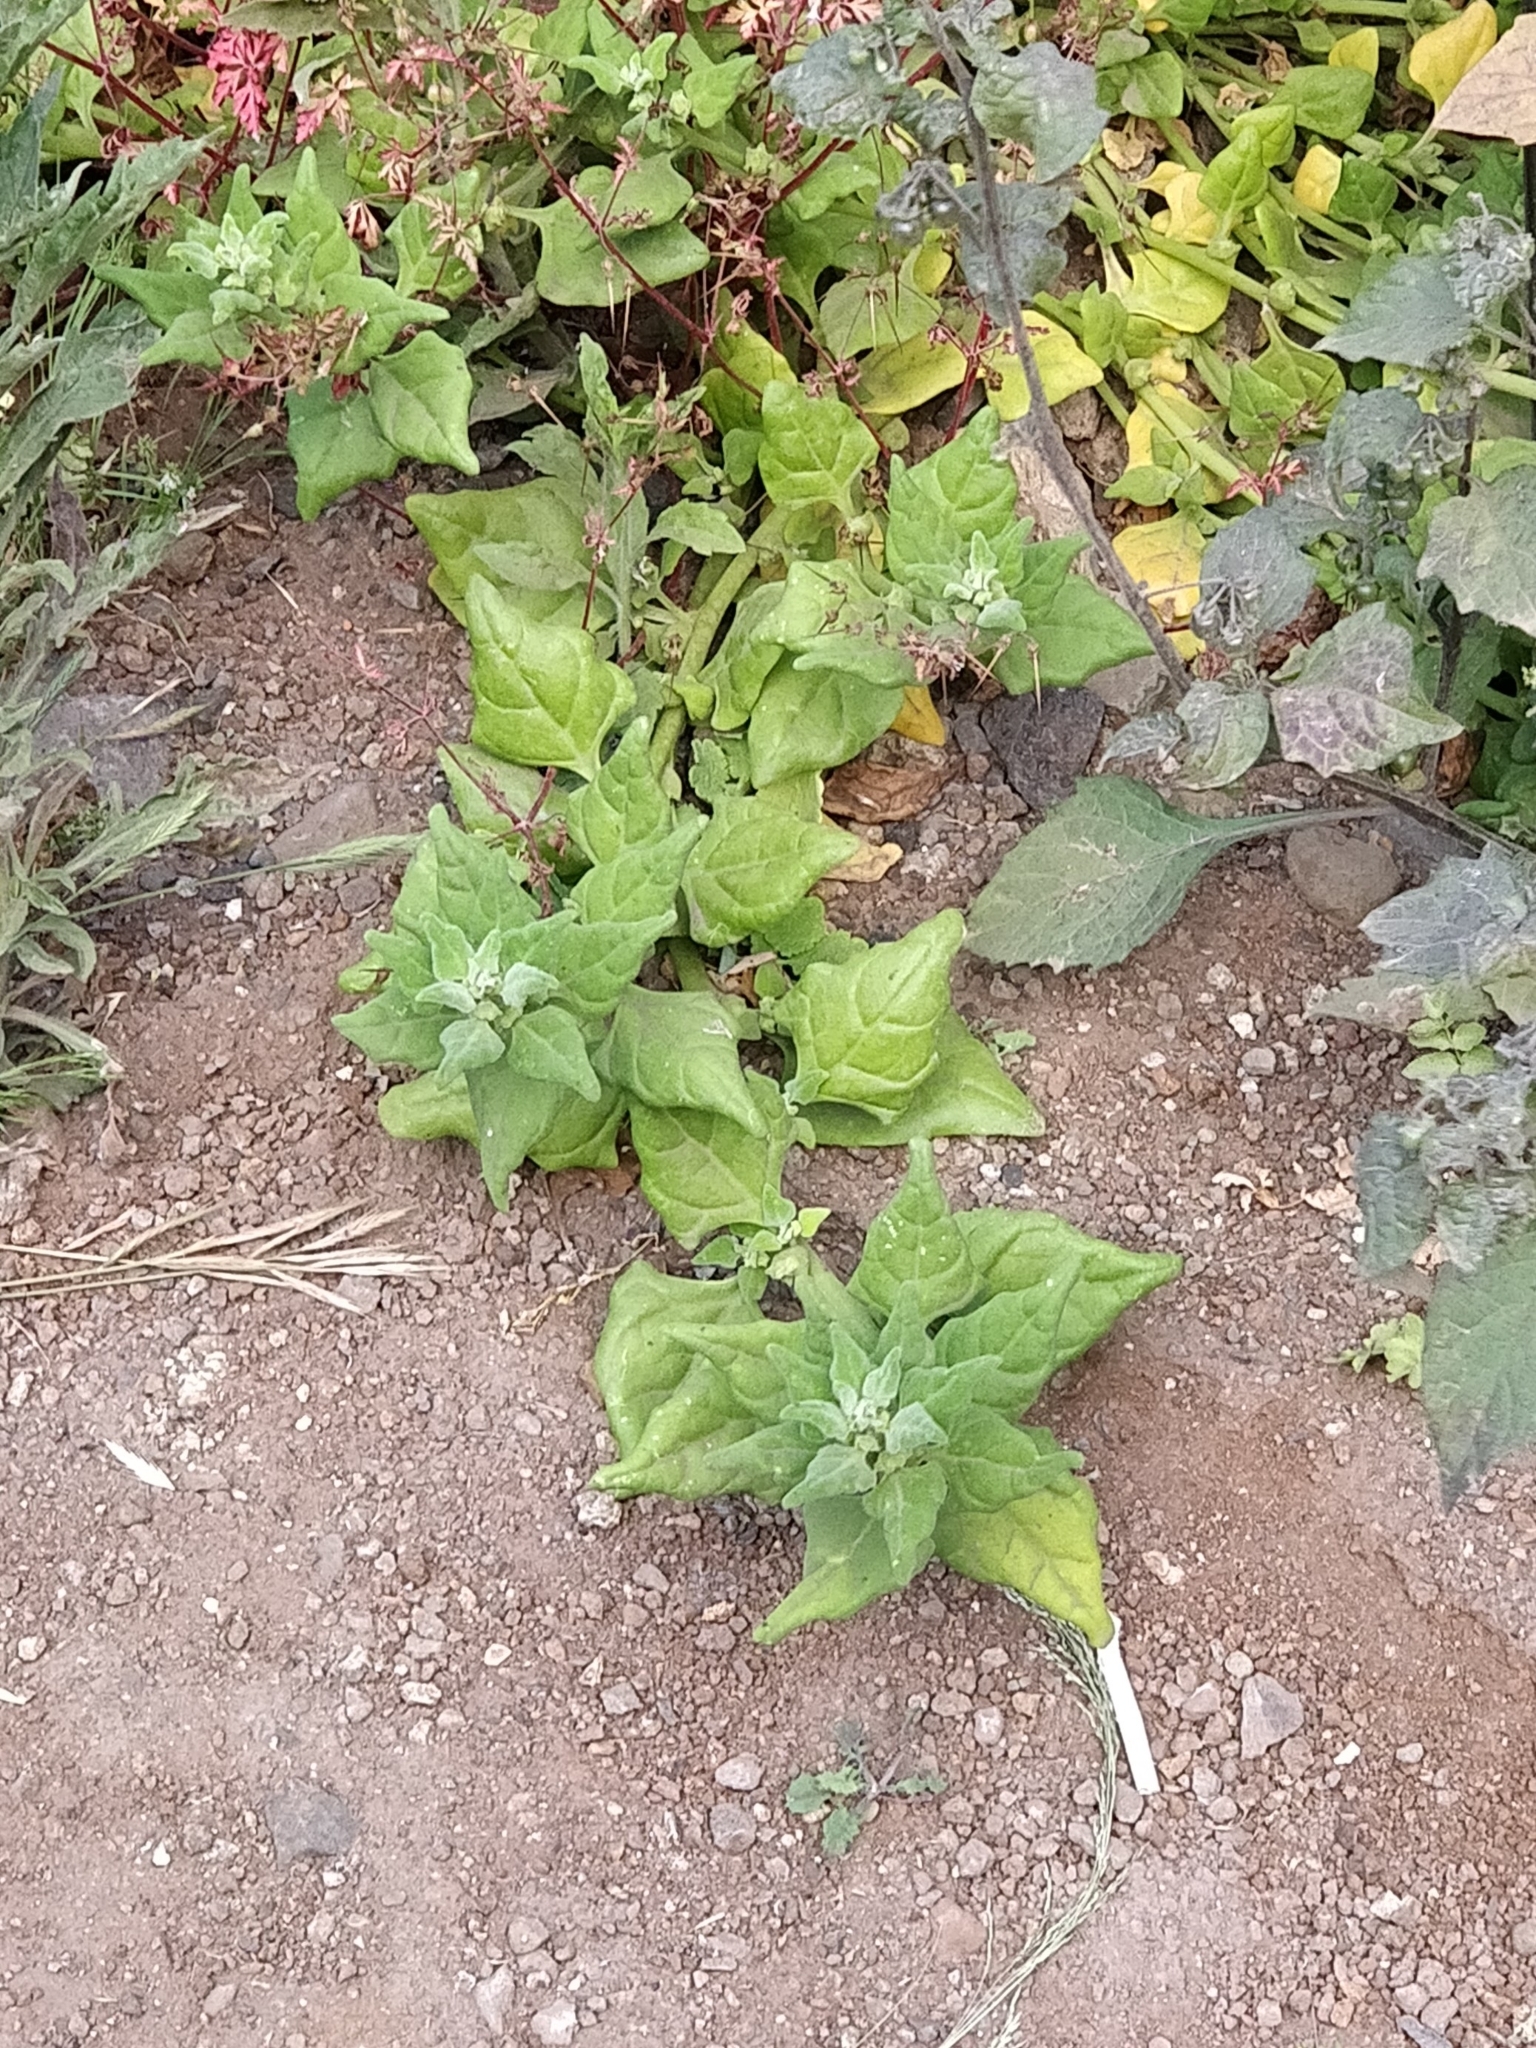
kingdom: Plantae
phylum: Tracheophyta
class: Magnoliopsida
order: Caryophyllales
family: Aizoaceae
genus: Tetragonia
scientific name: Tetragonia tetragonoides
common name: New zealand-spinach
